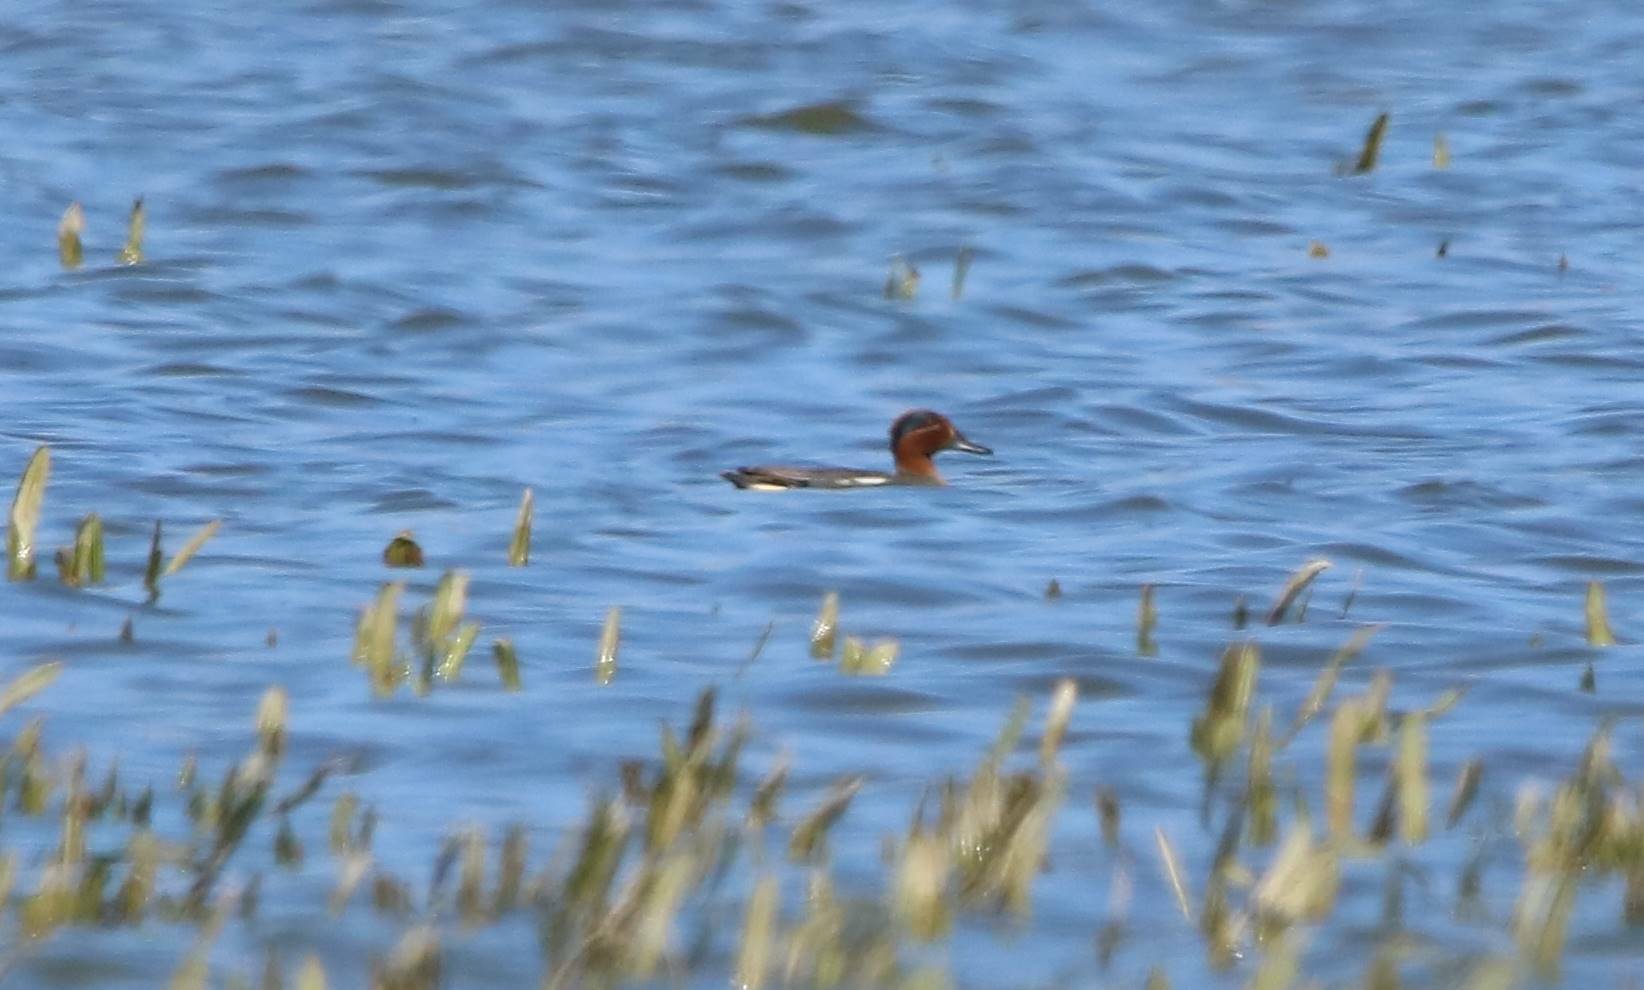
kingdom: Animalia
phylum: Chordata
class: Aves
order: Anseriformes
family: Anatidae
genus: Anas
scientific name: Anas crecca
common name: Eurasian teal
